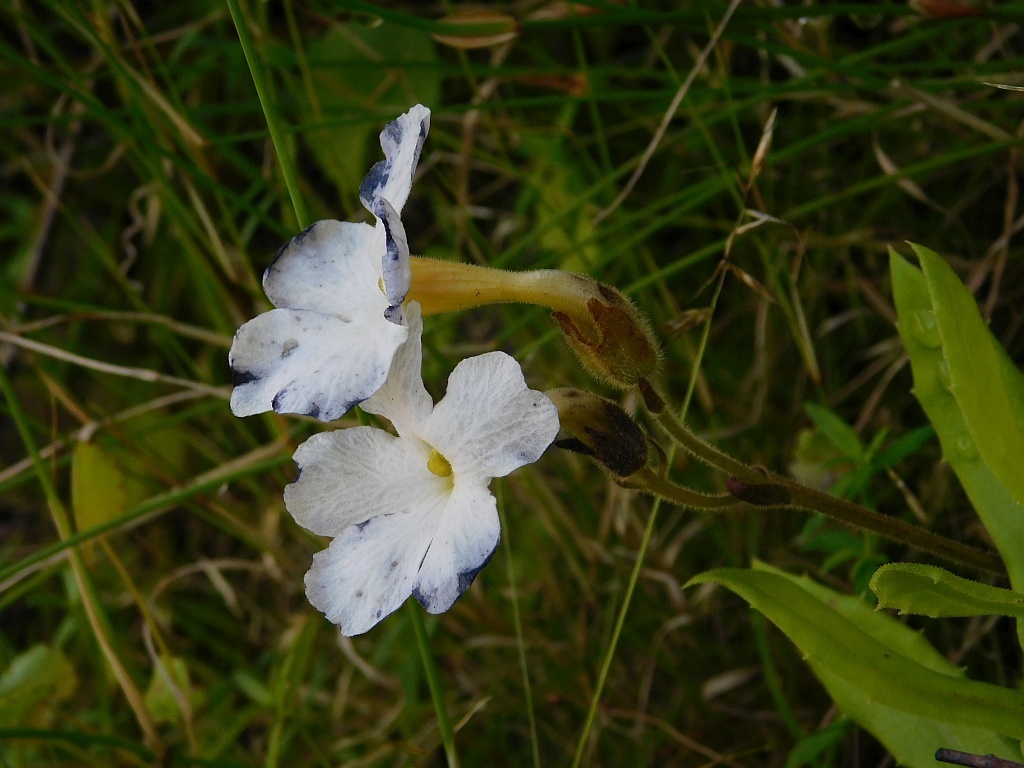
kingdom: Plantae
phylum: Tracheophyta
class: Magnoliopsida
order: Lamiales
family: Orobanchaceae
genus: Harveya
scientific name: Harveya capensis
